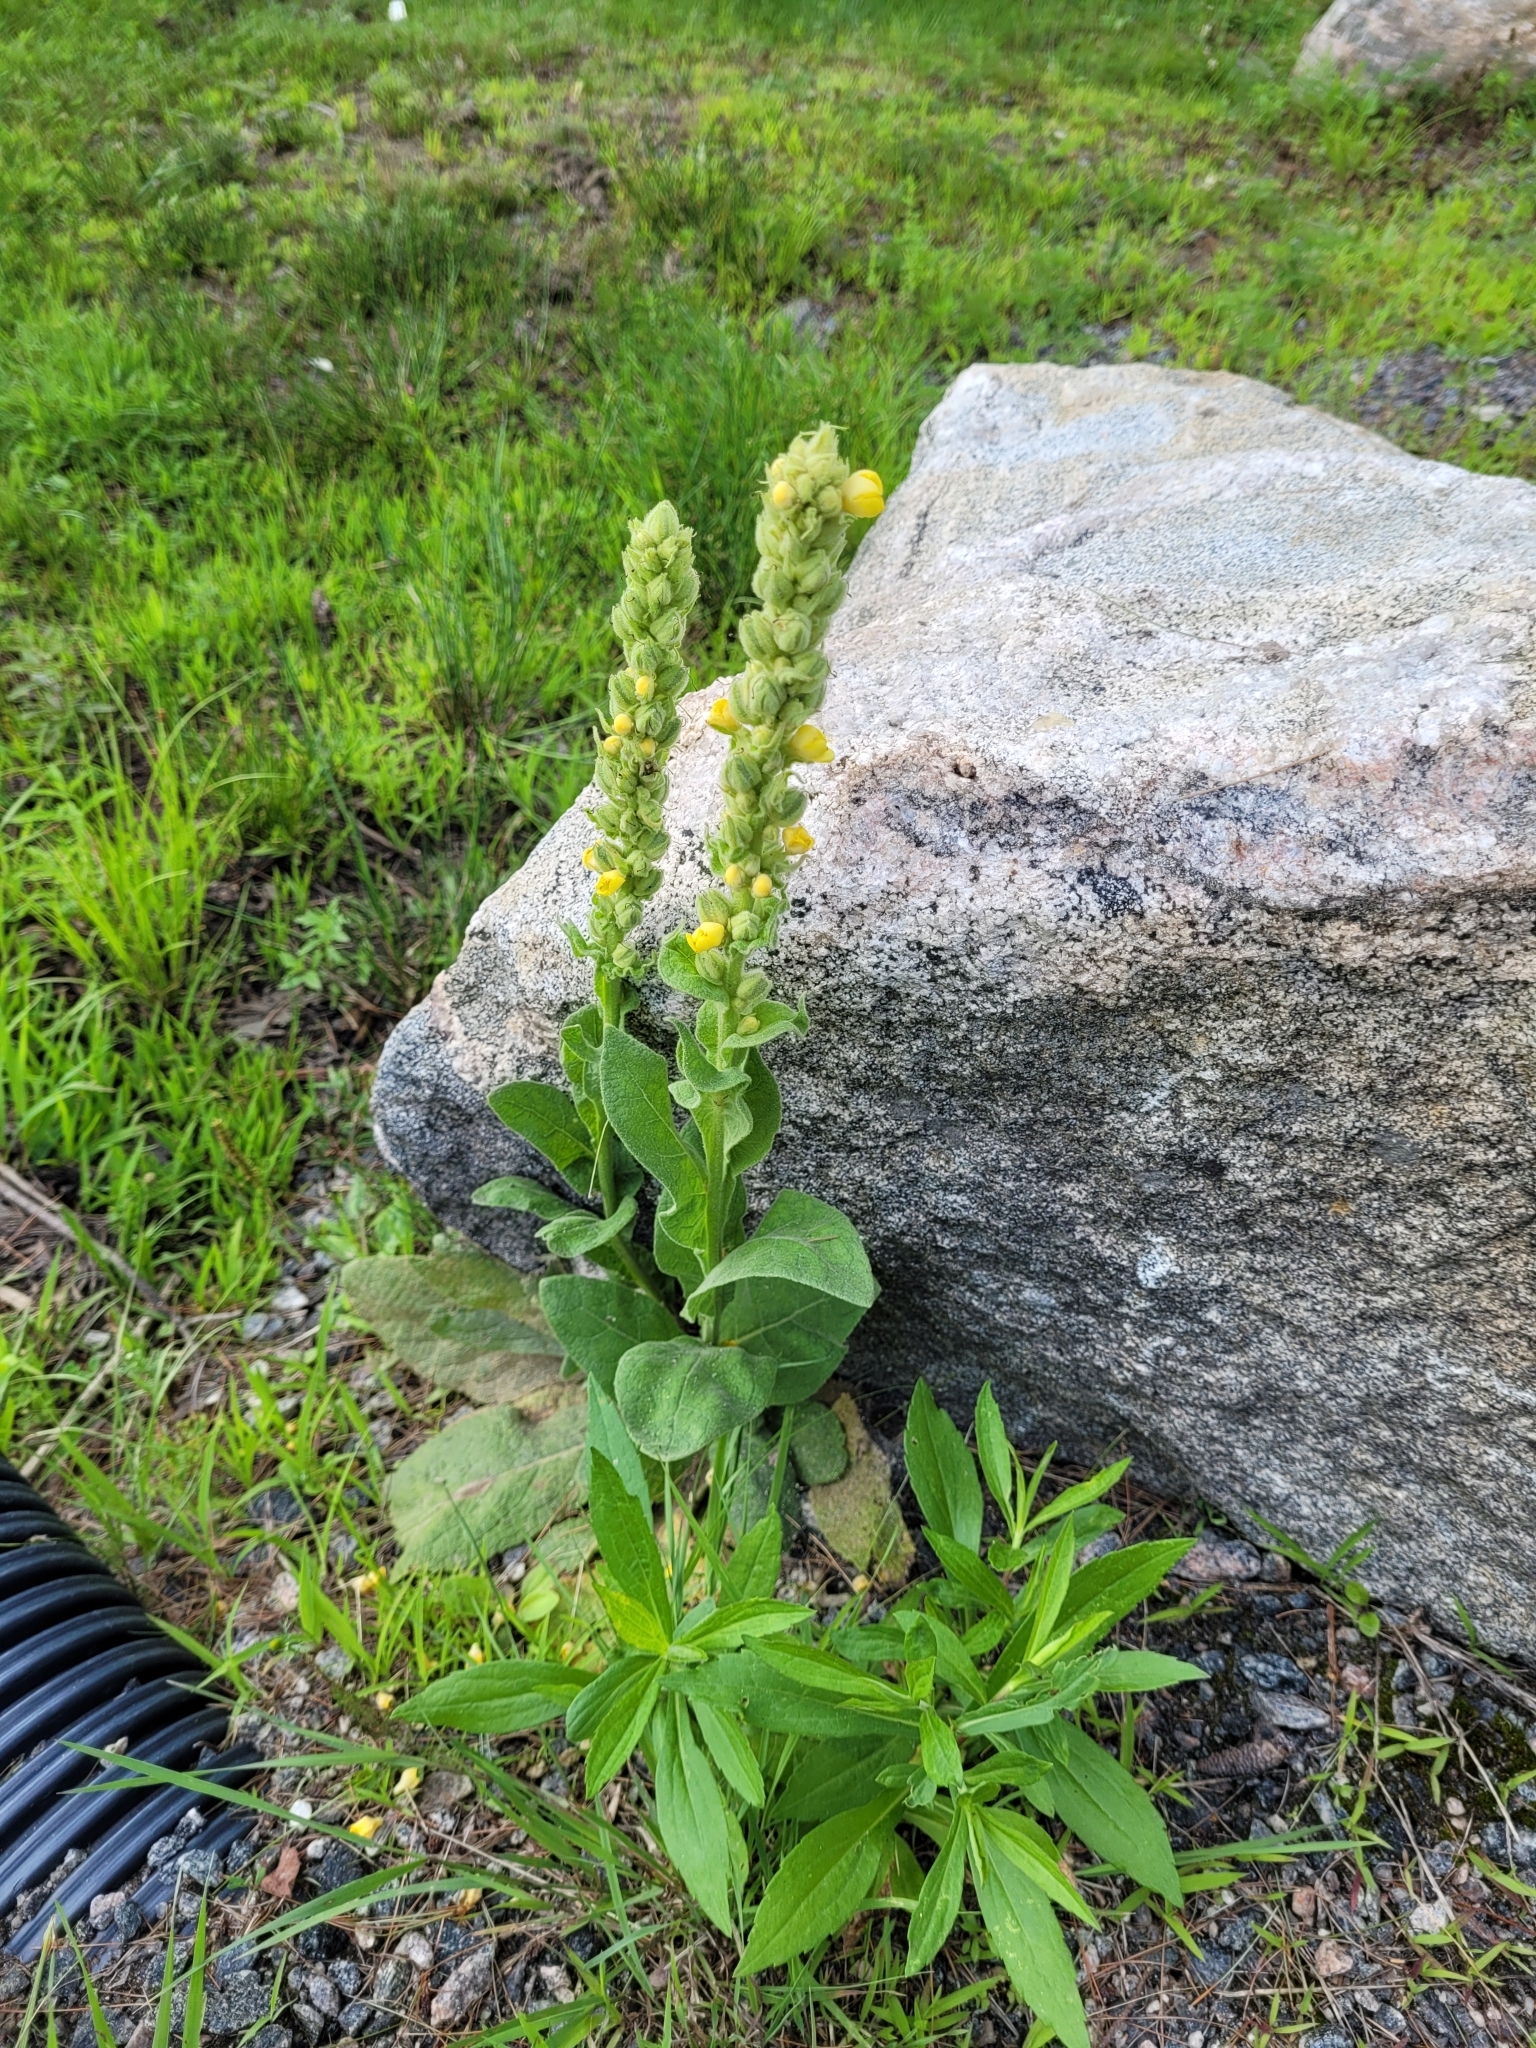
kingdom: Plantae
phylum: Tracheophyta
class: Magnoliopsida
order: Lamiales
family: Scrophulariaceae
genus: Verbascum
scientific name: Verbascum thapsus
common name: Common mullein
